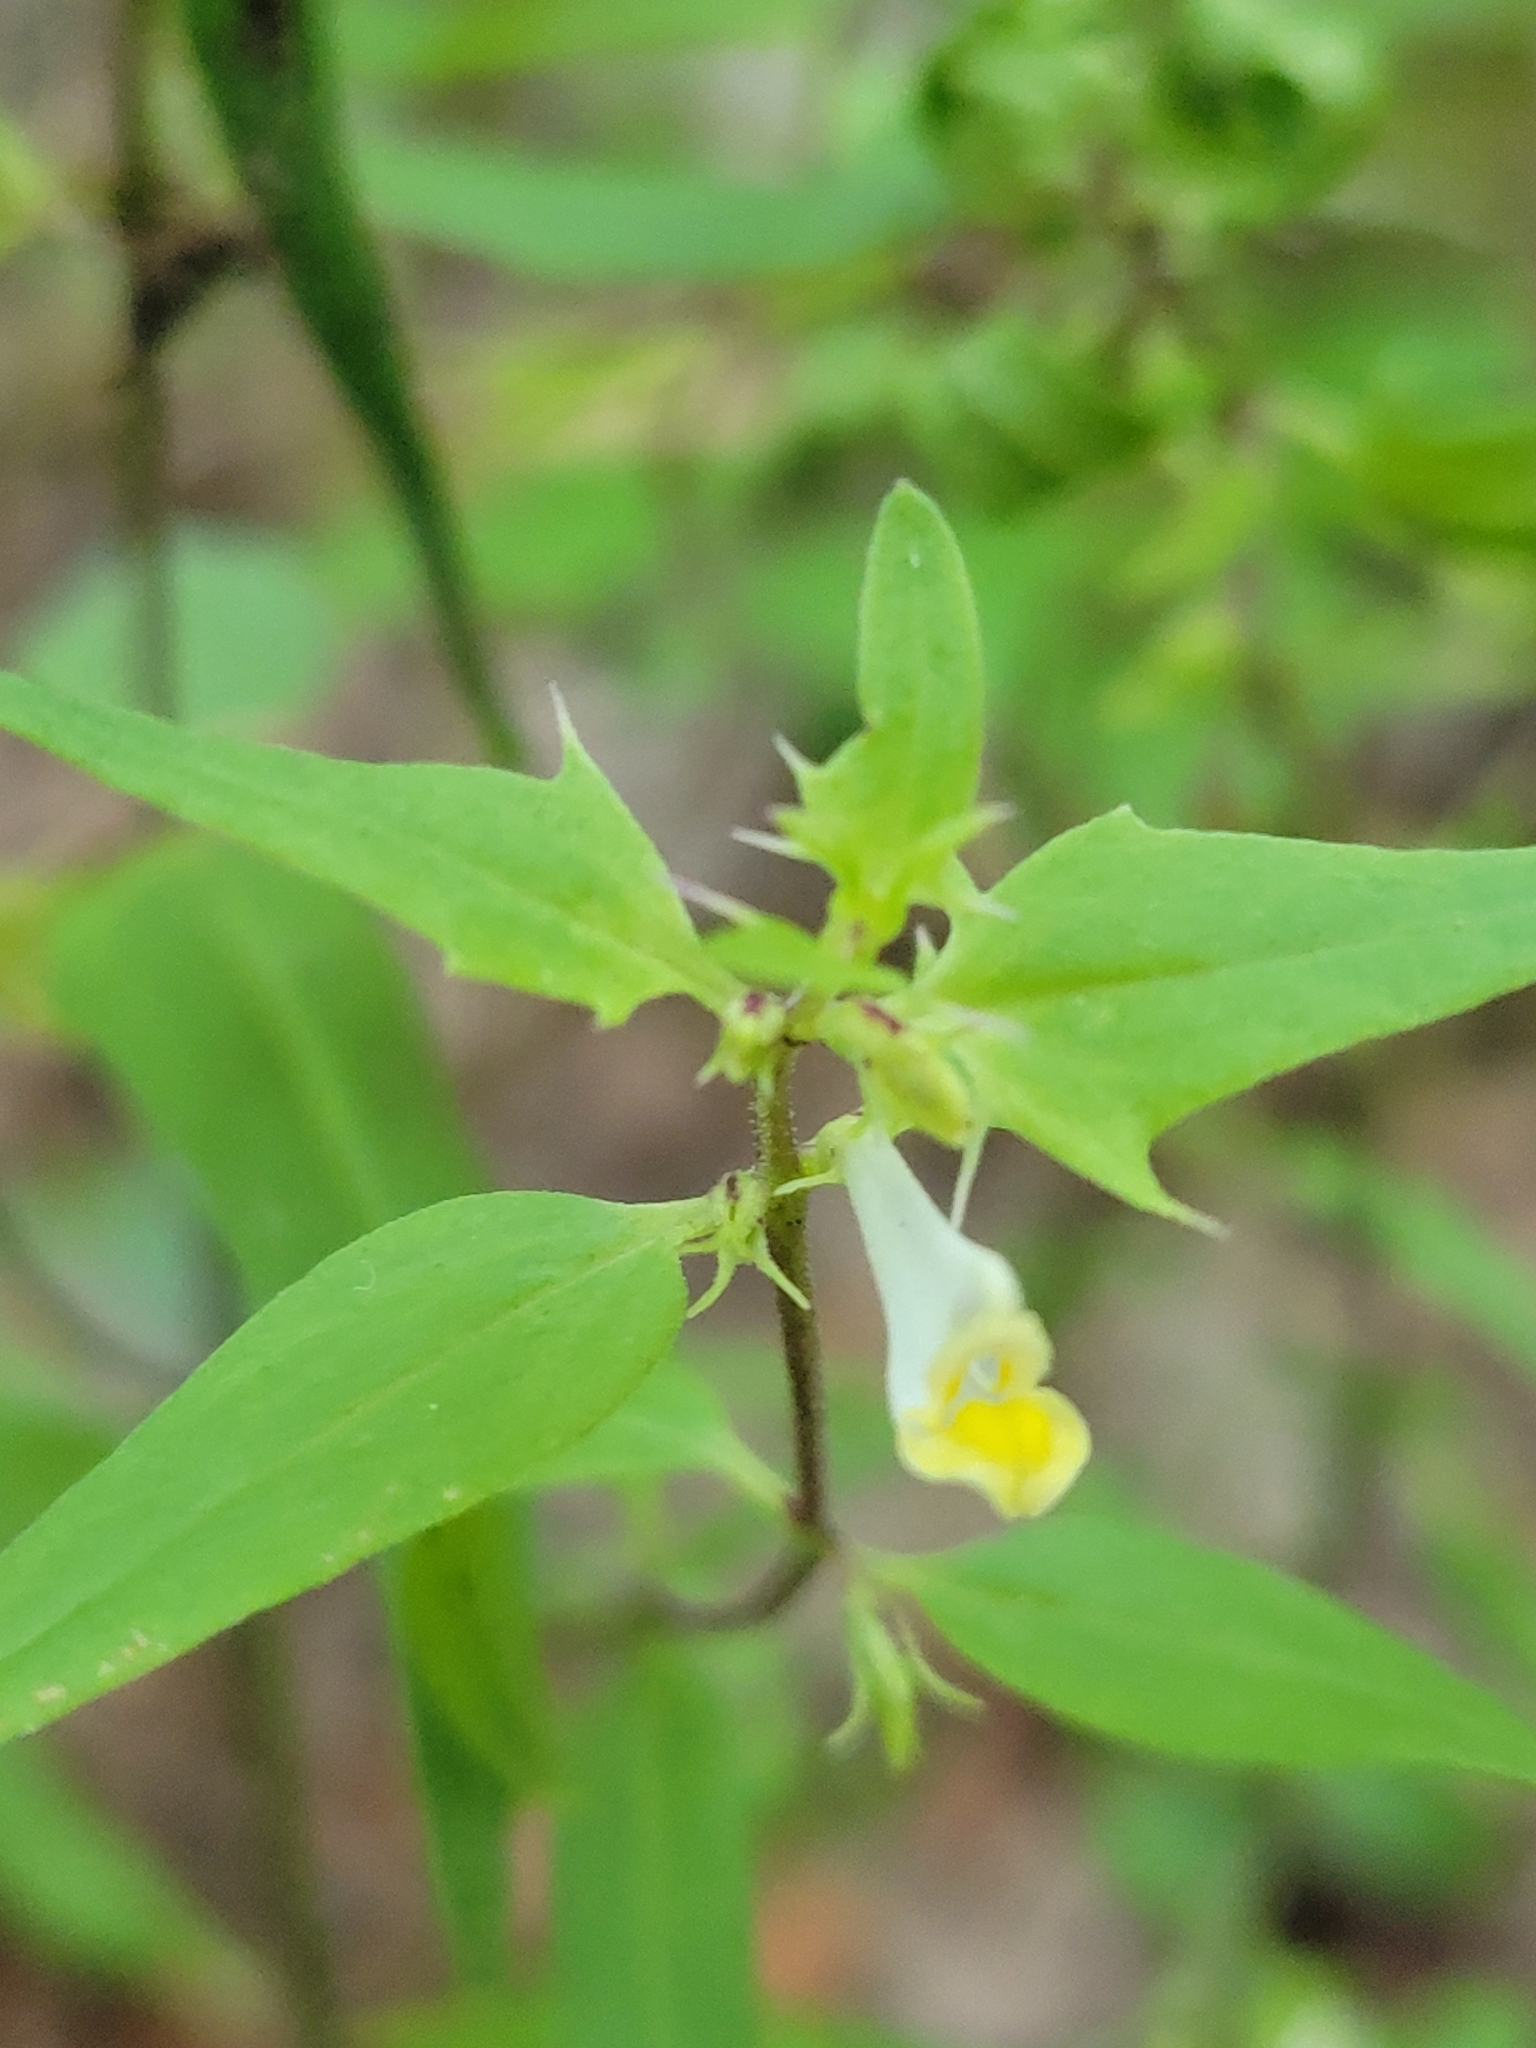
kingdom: Plantae
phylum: Tracheophyta
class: Magnoliopsida
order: Lamiales
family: Orobanchaceae
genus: Melampyrum
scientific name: Melampyrum lineare
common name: American cow-wheat
